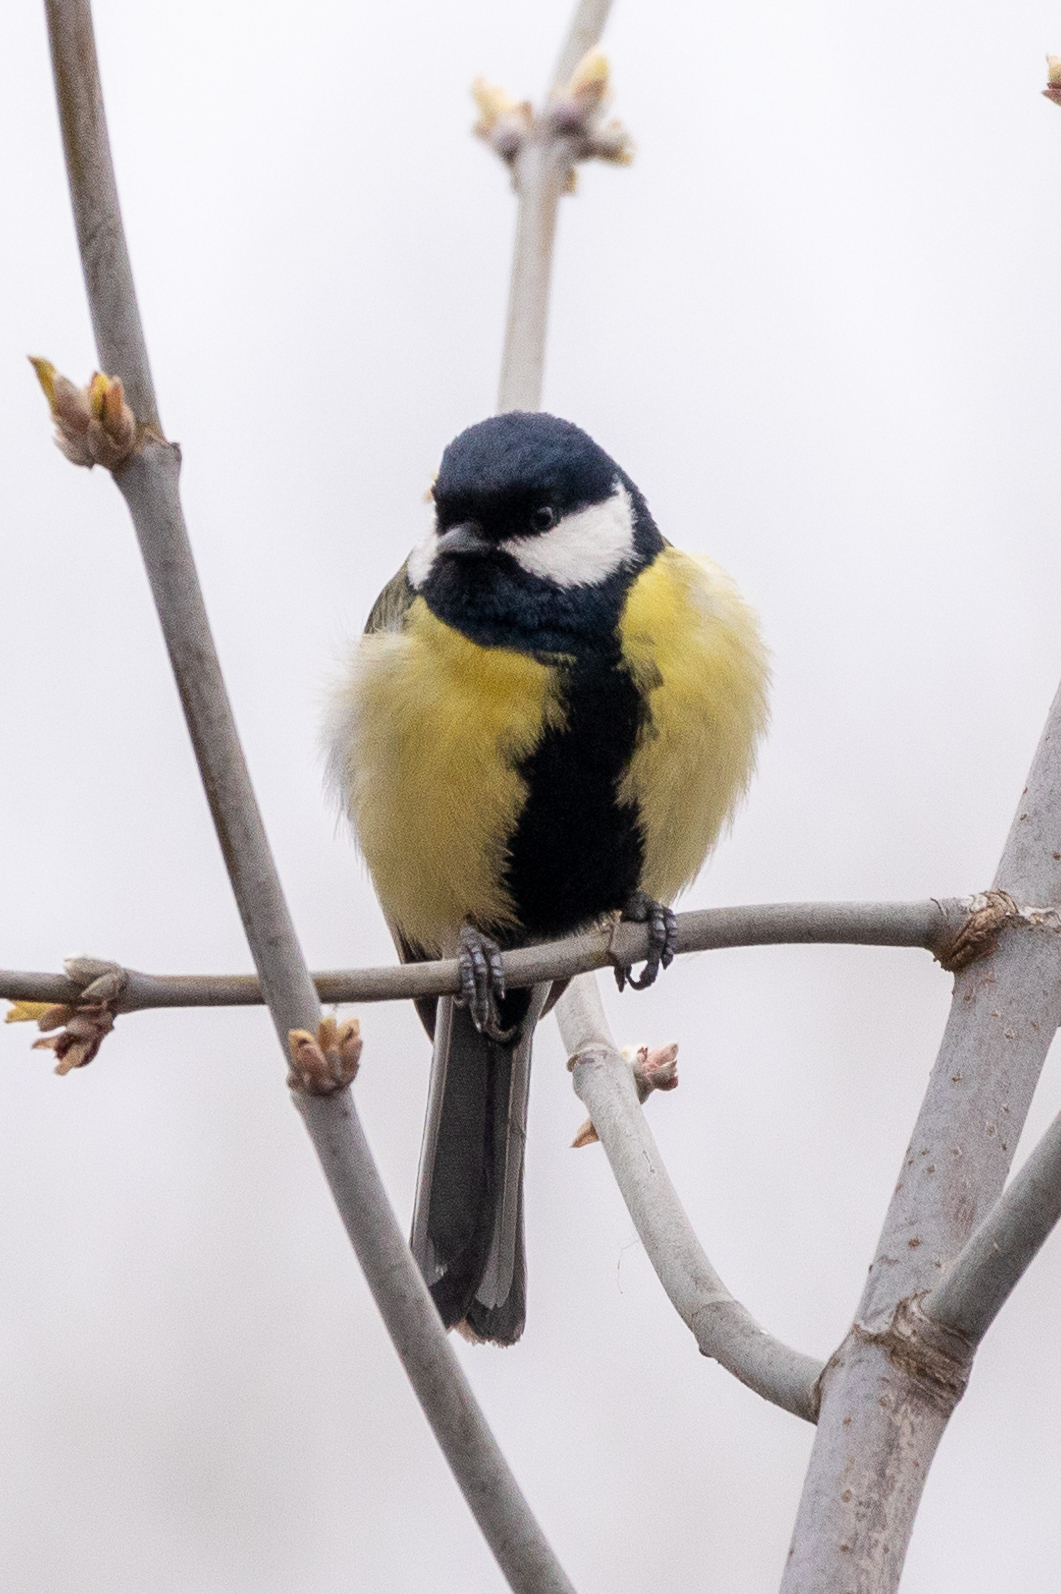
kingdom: Animalia
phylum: Chordata
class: Aves
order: Passeriformes
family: Paridae
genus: Parus
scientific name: Parus major
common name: Great tit
